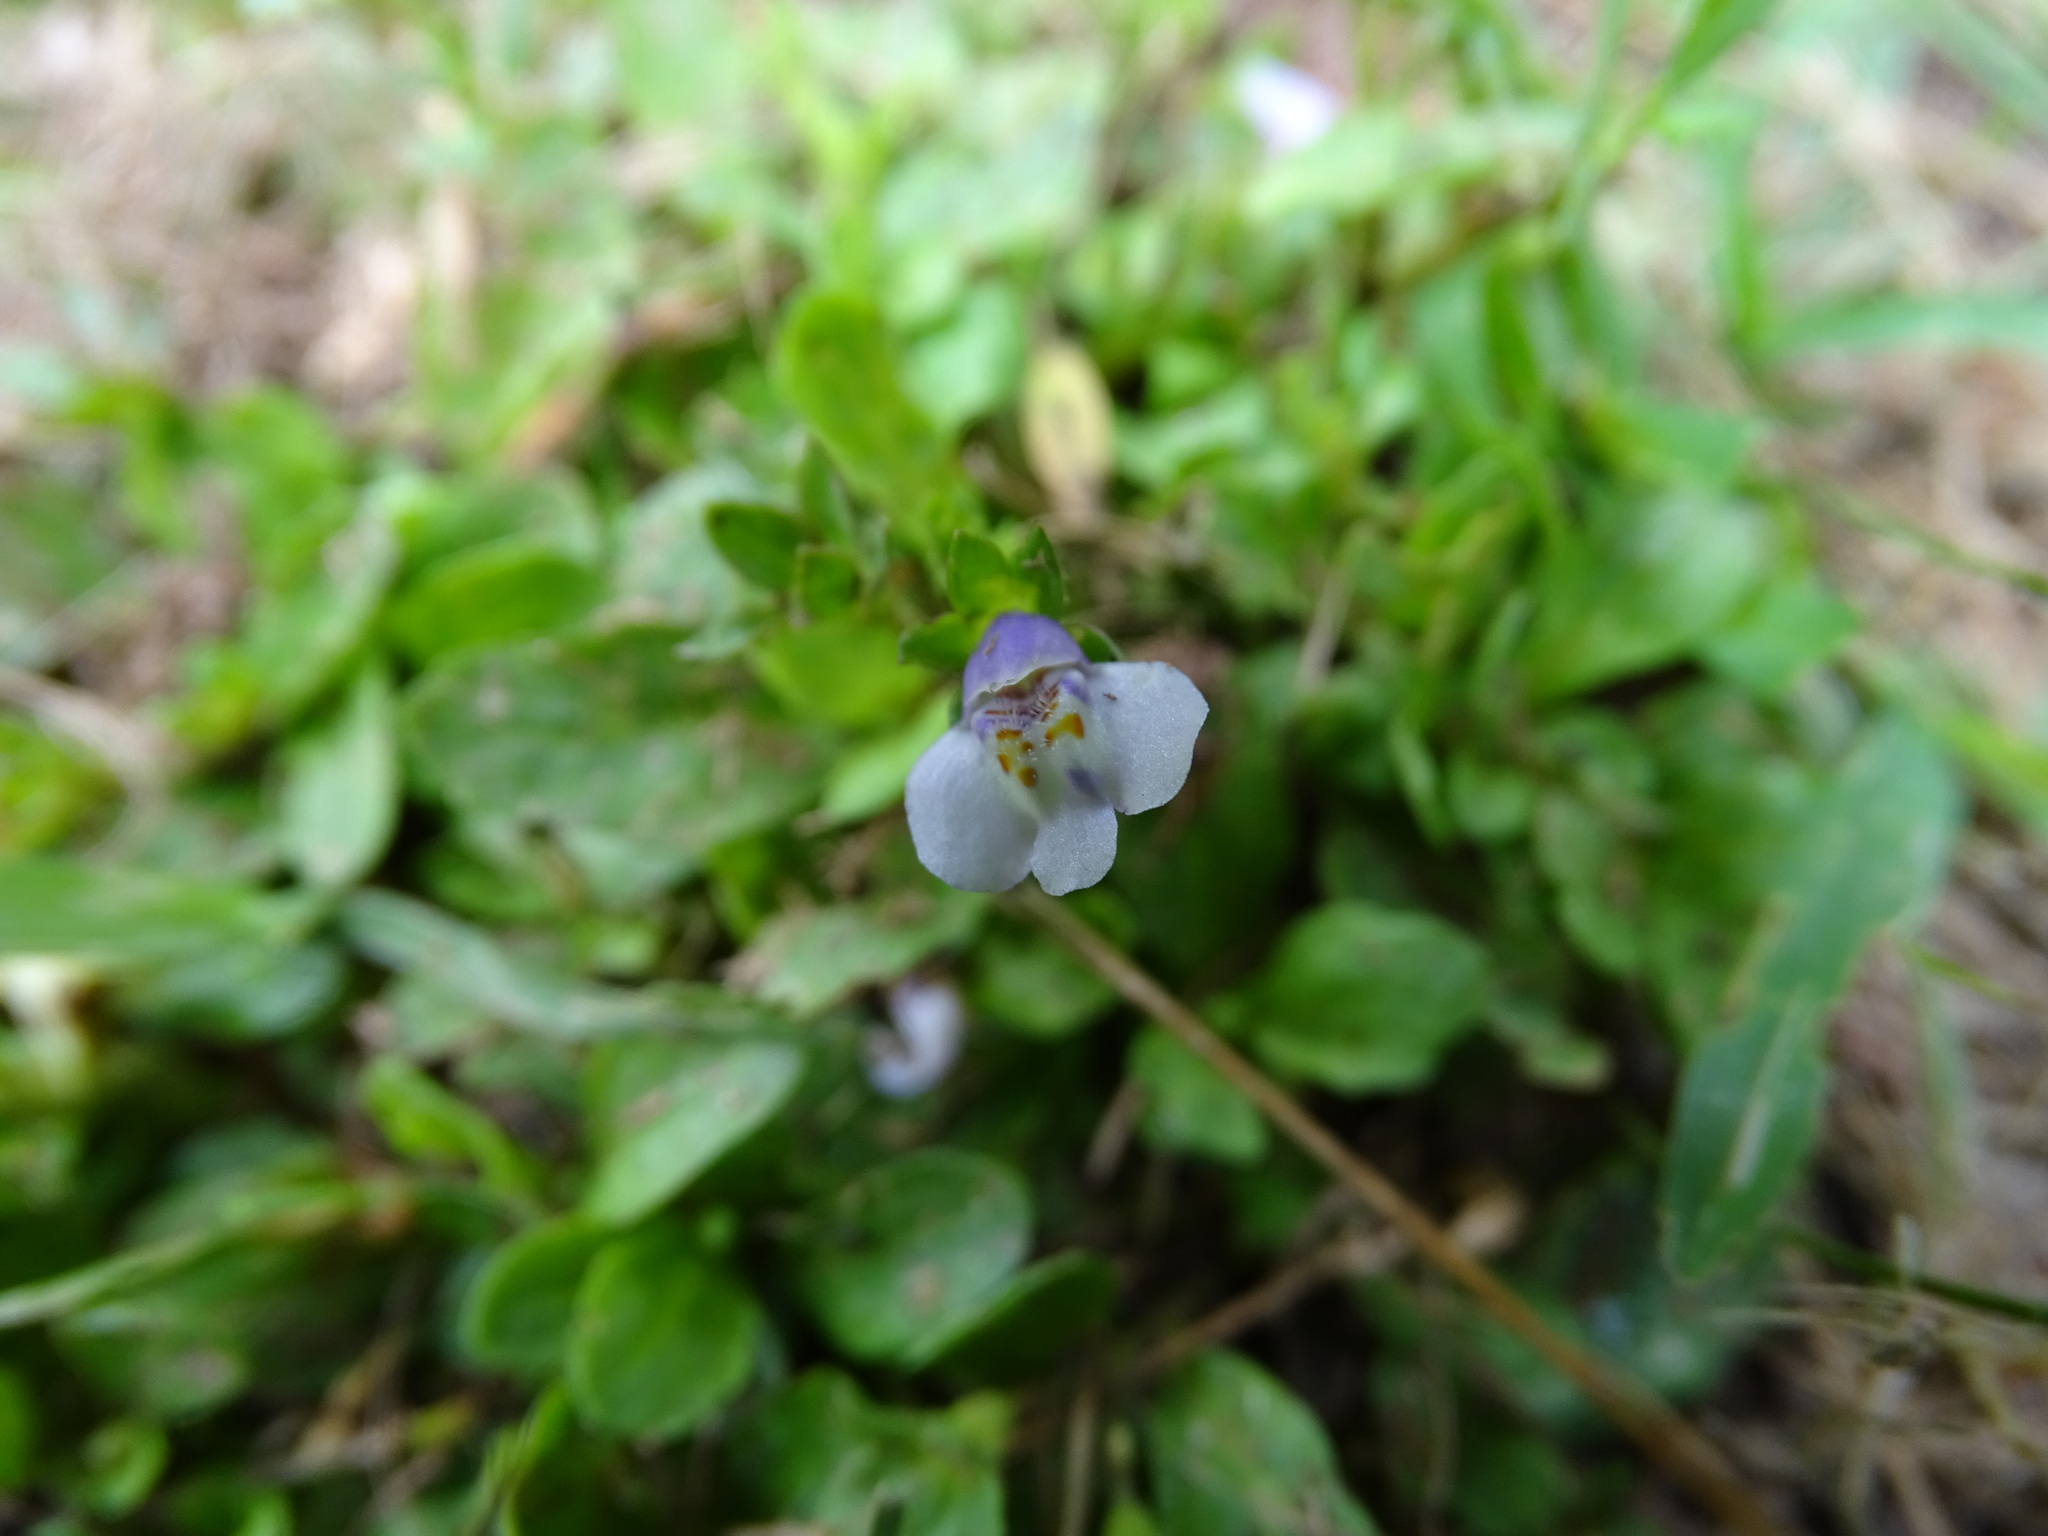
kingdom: Plantae
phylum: Tracheophyta
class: Magnoliopsida
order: Lamiales
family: Mazaceae
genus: Mazus
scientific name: Mazus pumilus
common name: Japanese mazus
